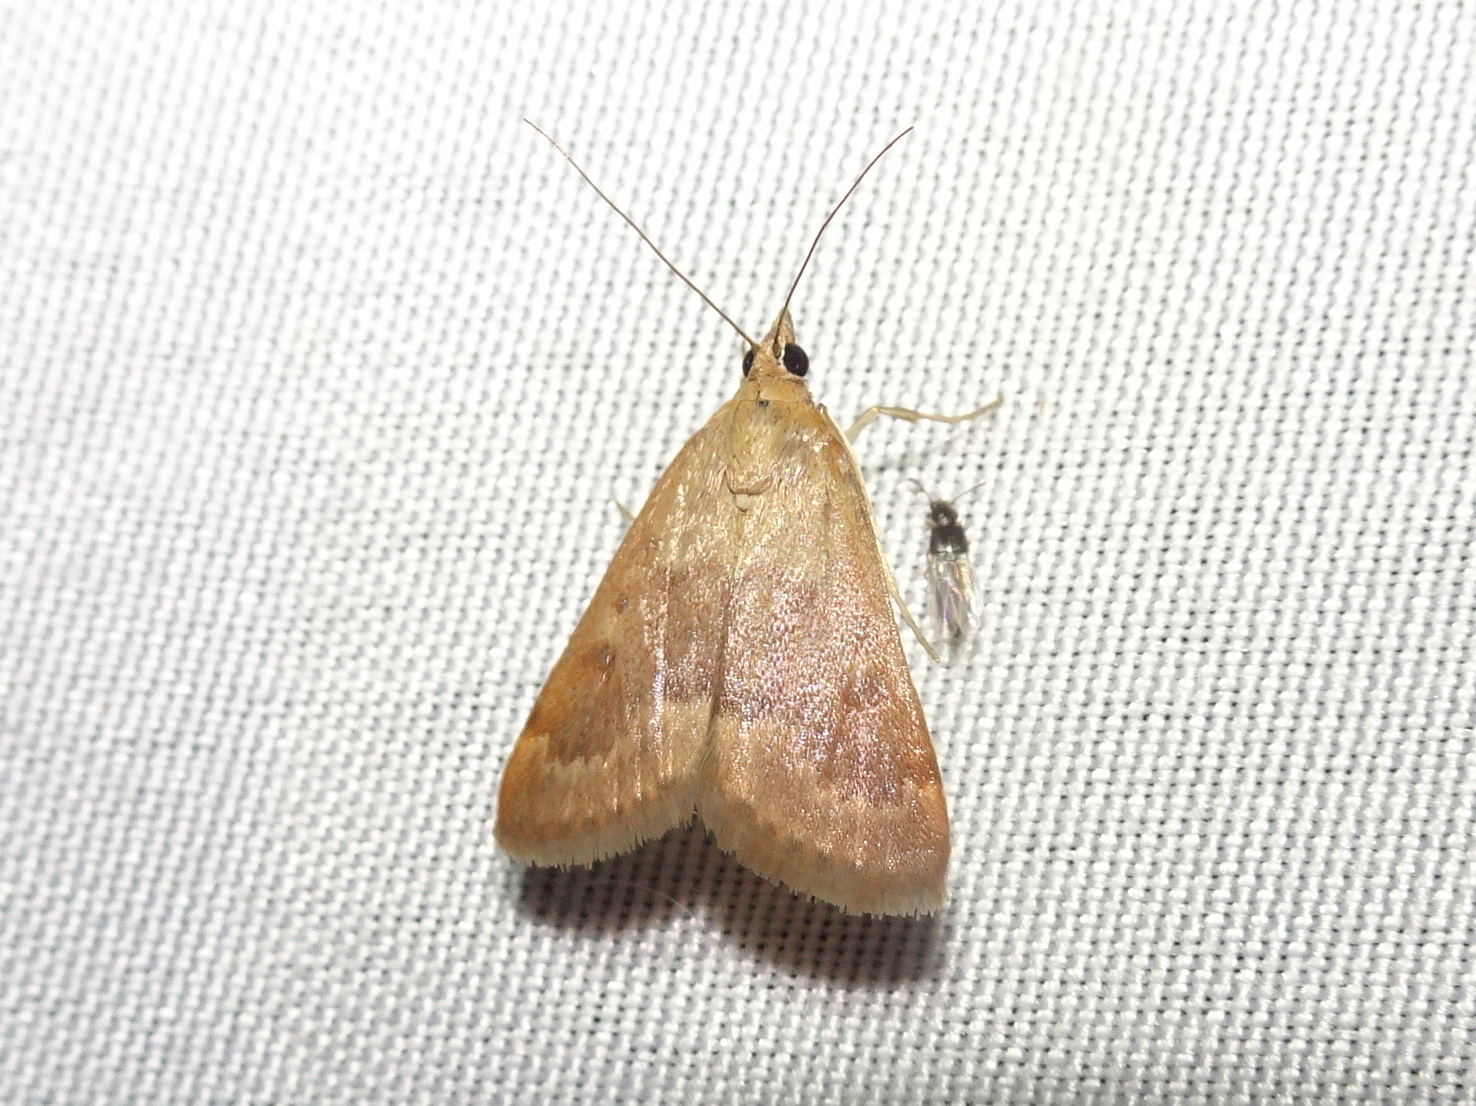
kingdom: Animalia
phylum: Arthropoda
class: Insecta
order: Lepidoptera
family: Crambidae
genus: Achyra
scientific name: Achyra rantalis
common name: Garden webworm
